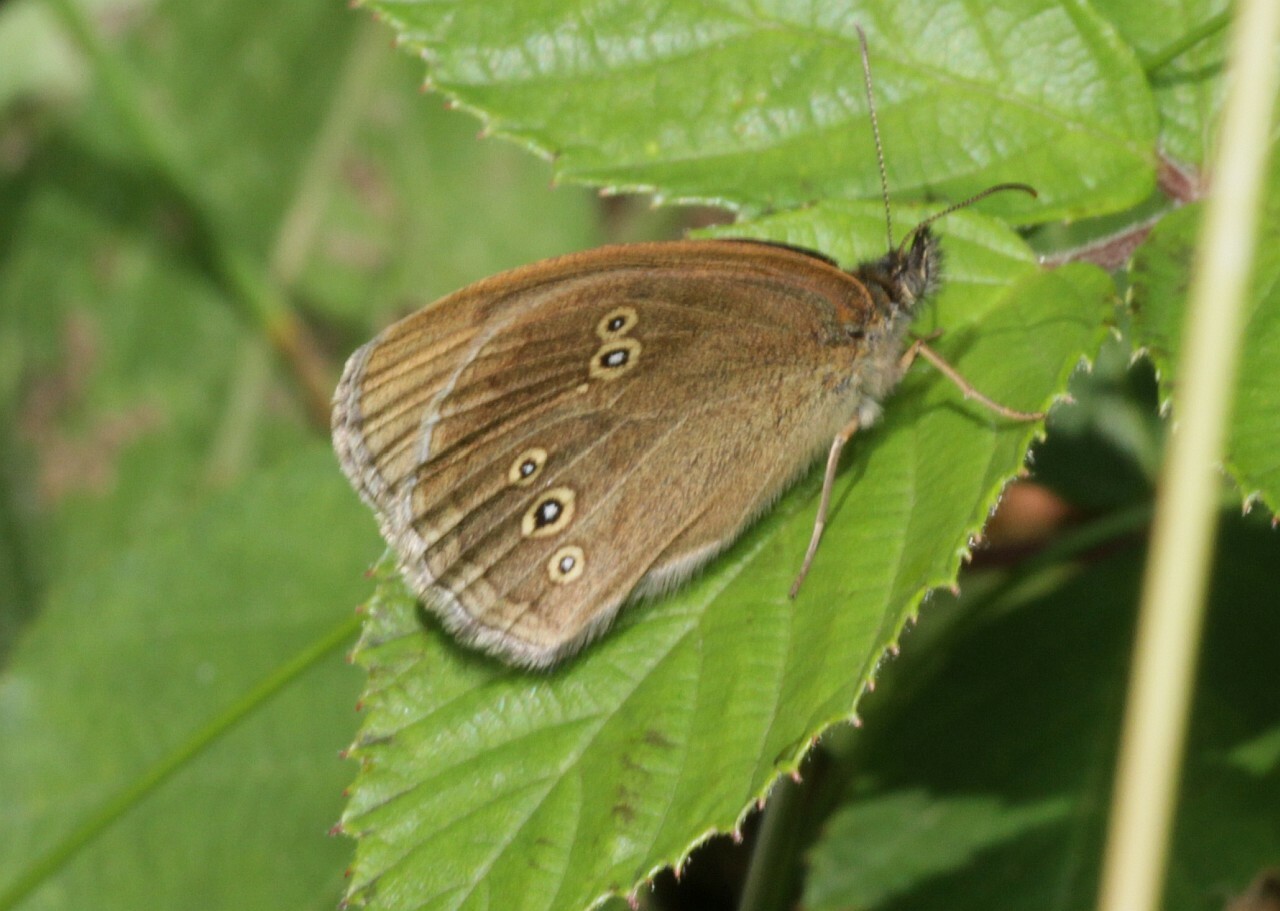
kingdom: Animalia
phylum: Arthropoda
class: Insecta
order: Lepidoptera
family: Nymphalidae
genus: Aphantopus
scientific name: Aphantopus hyperantus
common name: Ringlet
